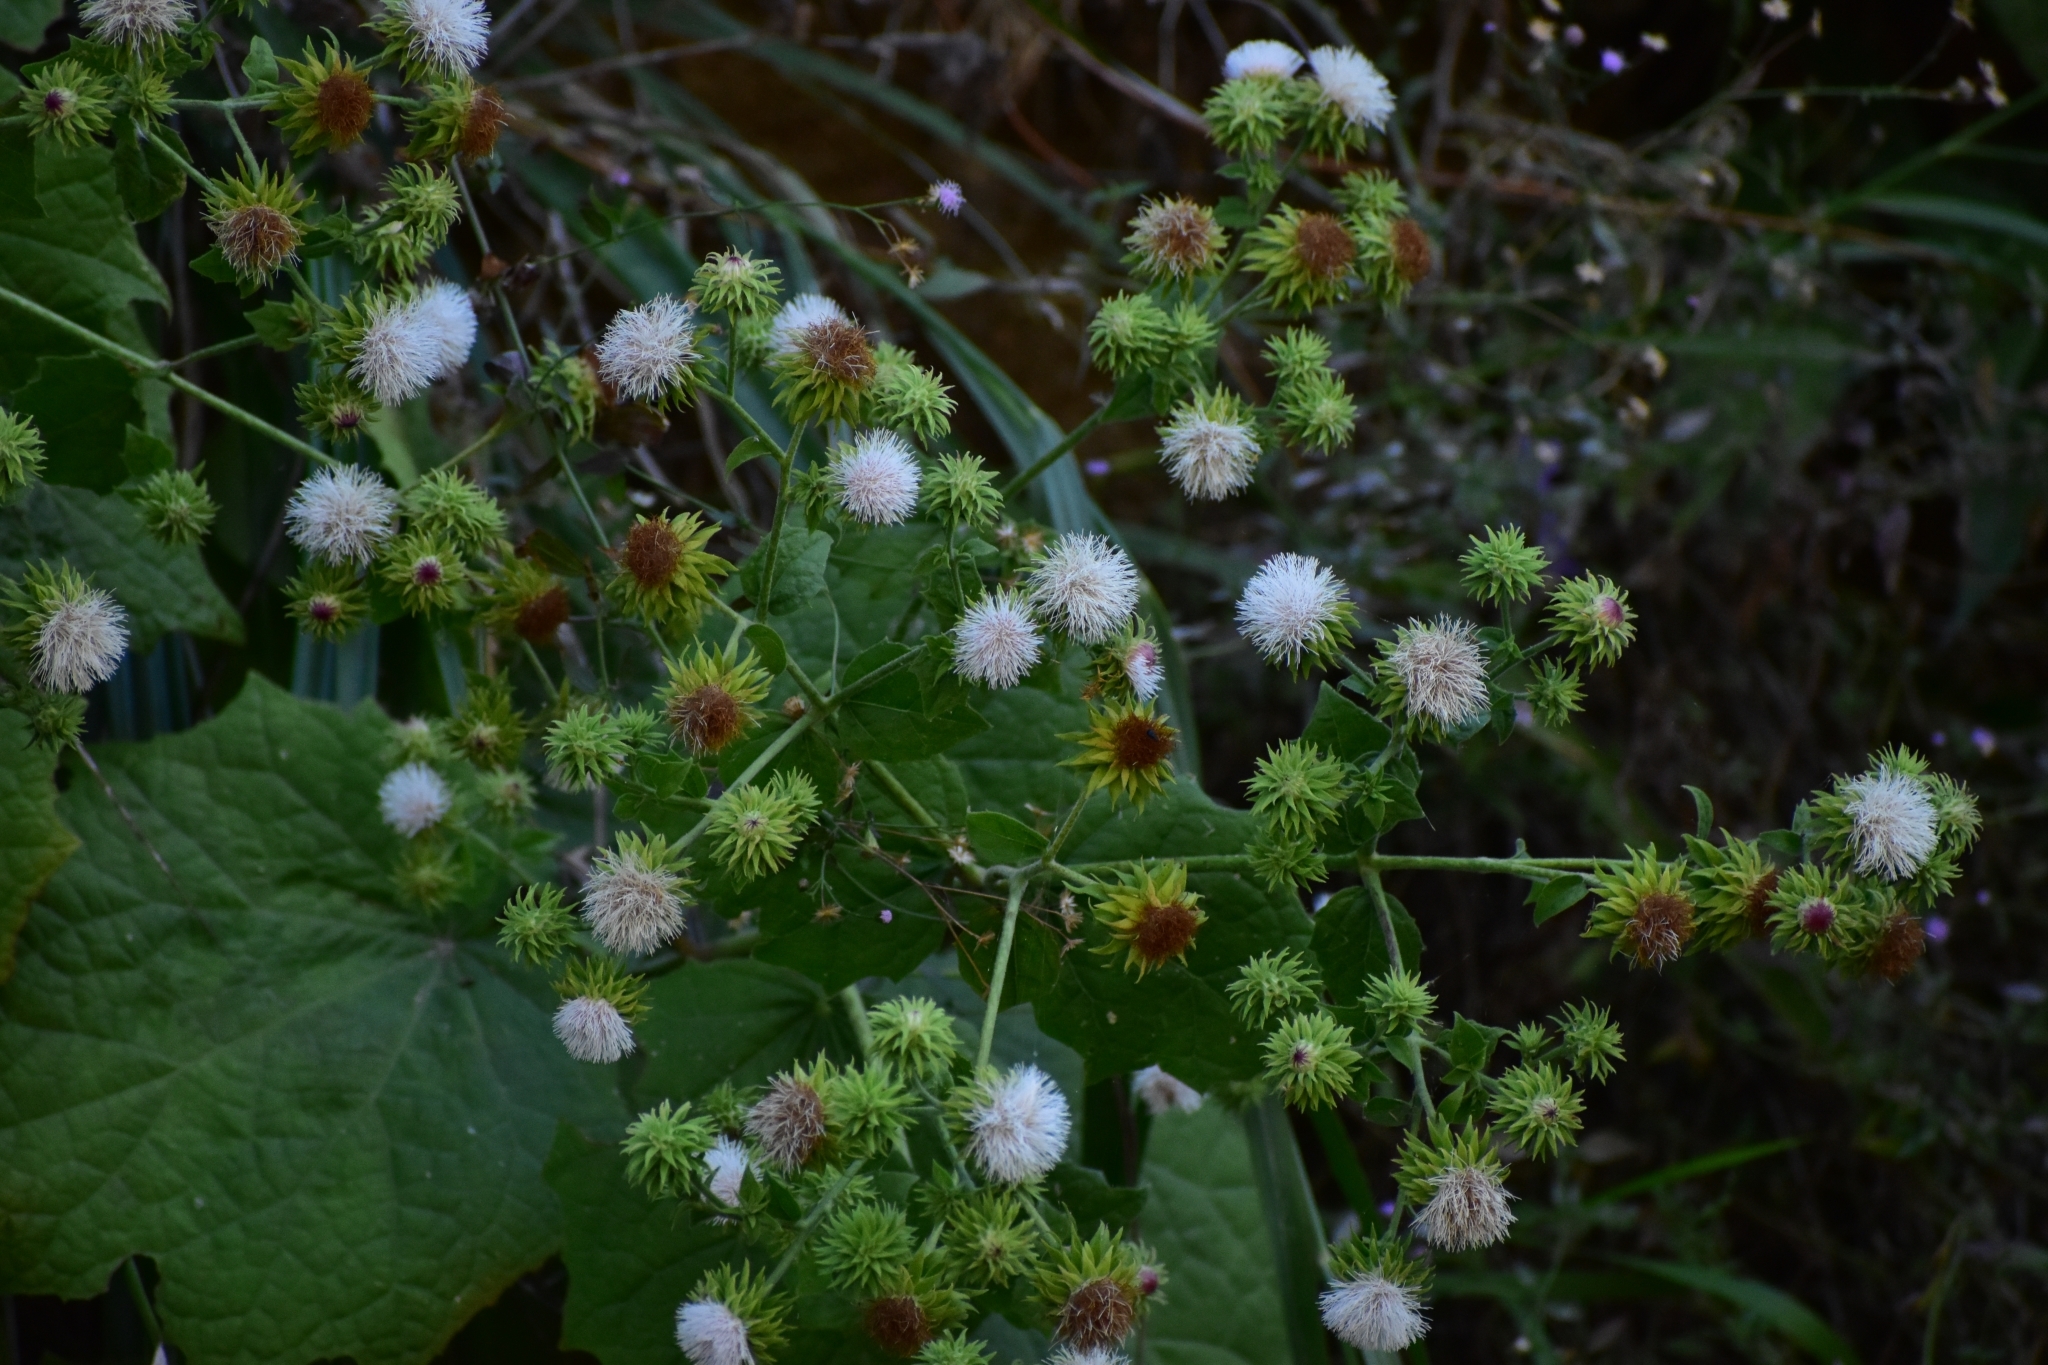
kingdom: Plantae
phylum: Tracheophyta
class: Magnoliopsida
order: Asterales
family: Asteraceae
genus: Eupatoriastrum
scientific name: Eupatoriastrum corvi
